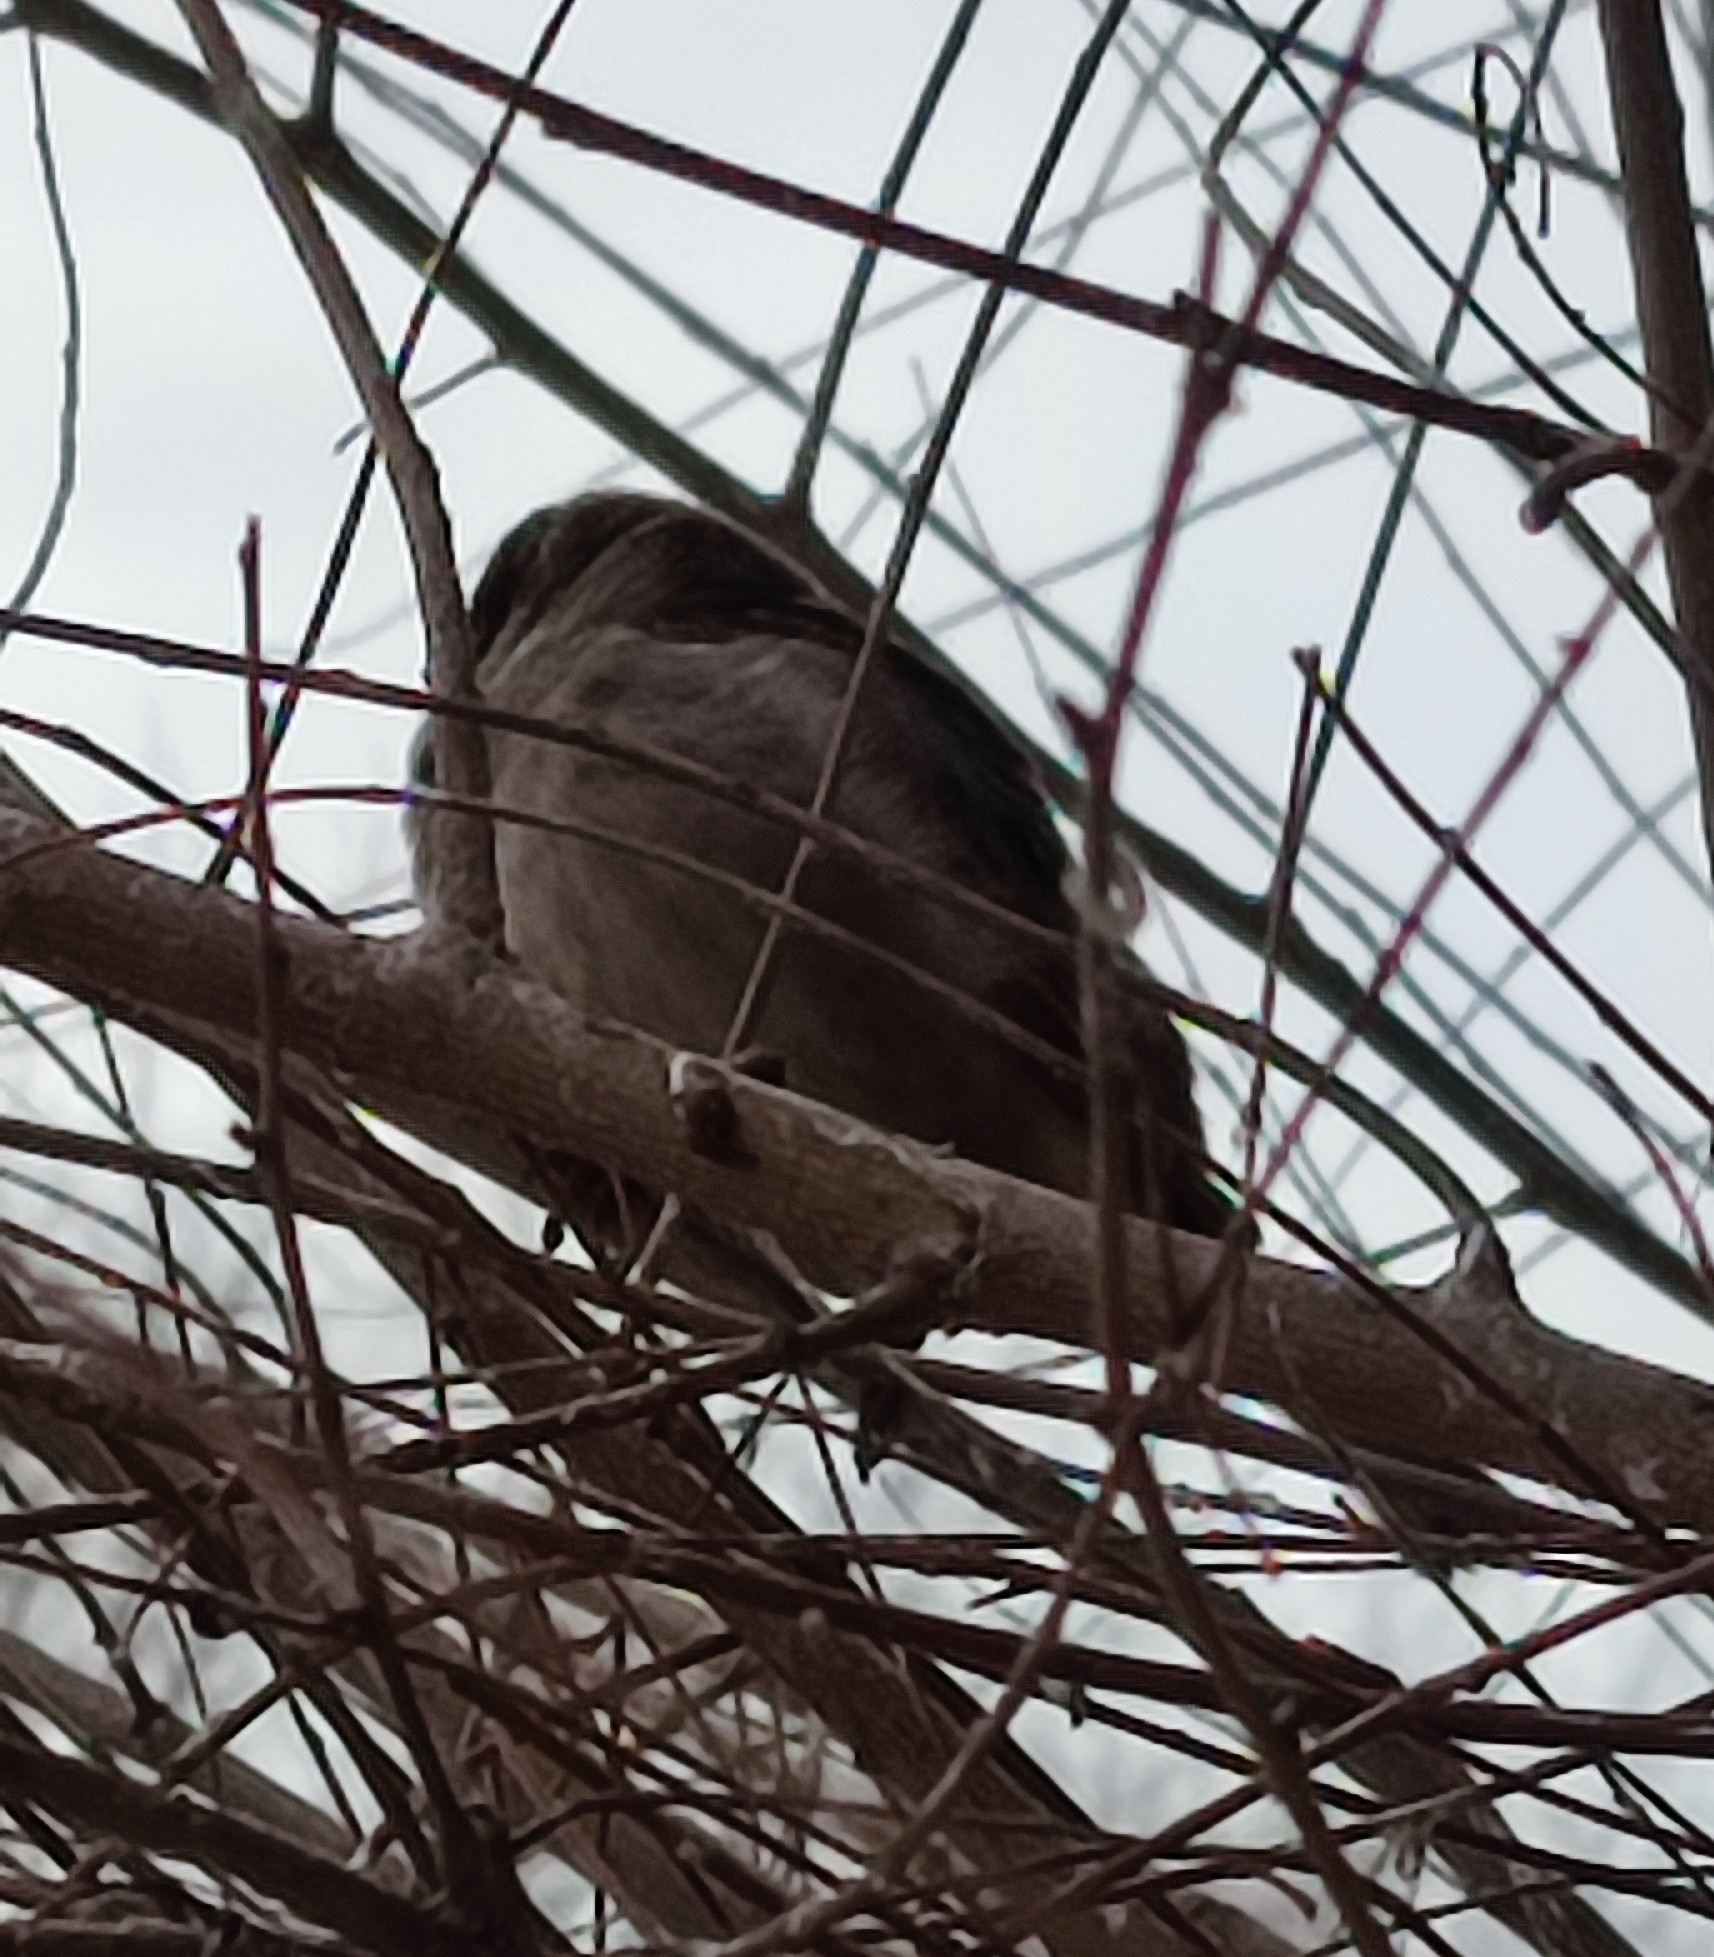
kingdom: Animalia
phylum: Chordata
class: Aves
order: Passeriformes
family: Passeridae
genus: Passer
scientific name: Passer domesticus
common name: House sparrow
